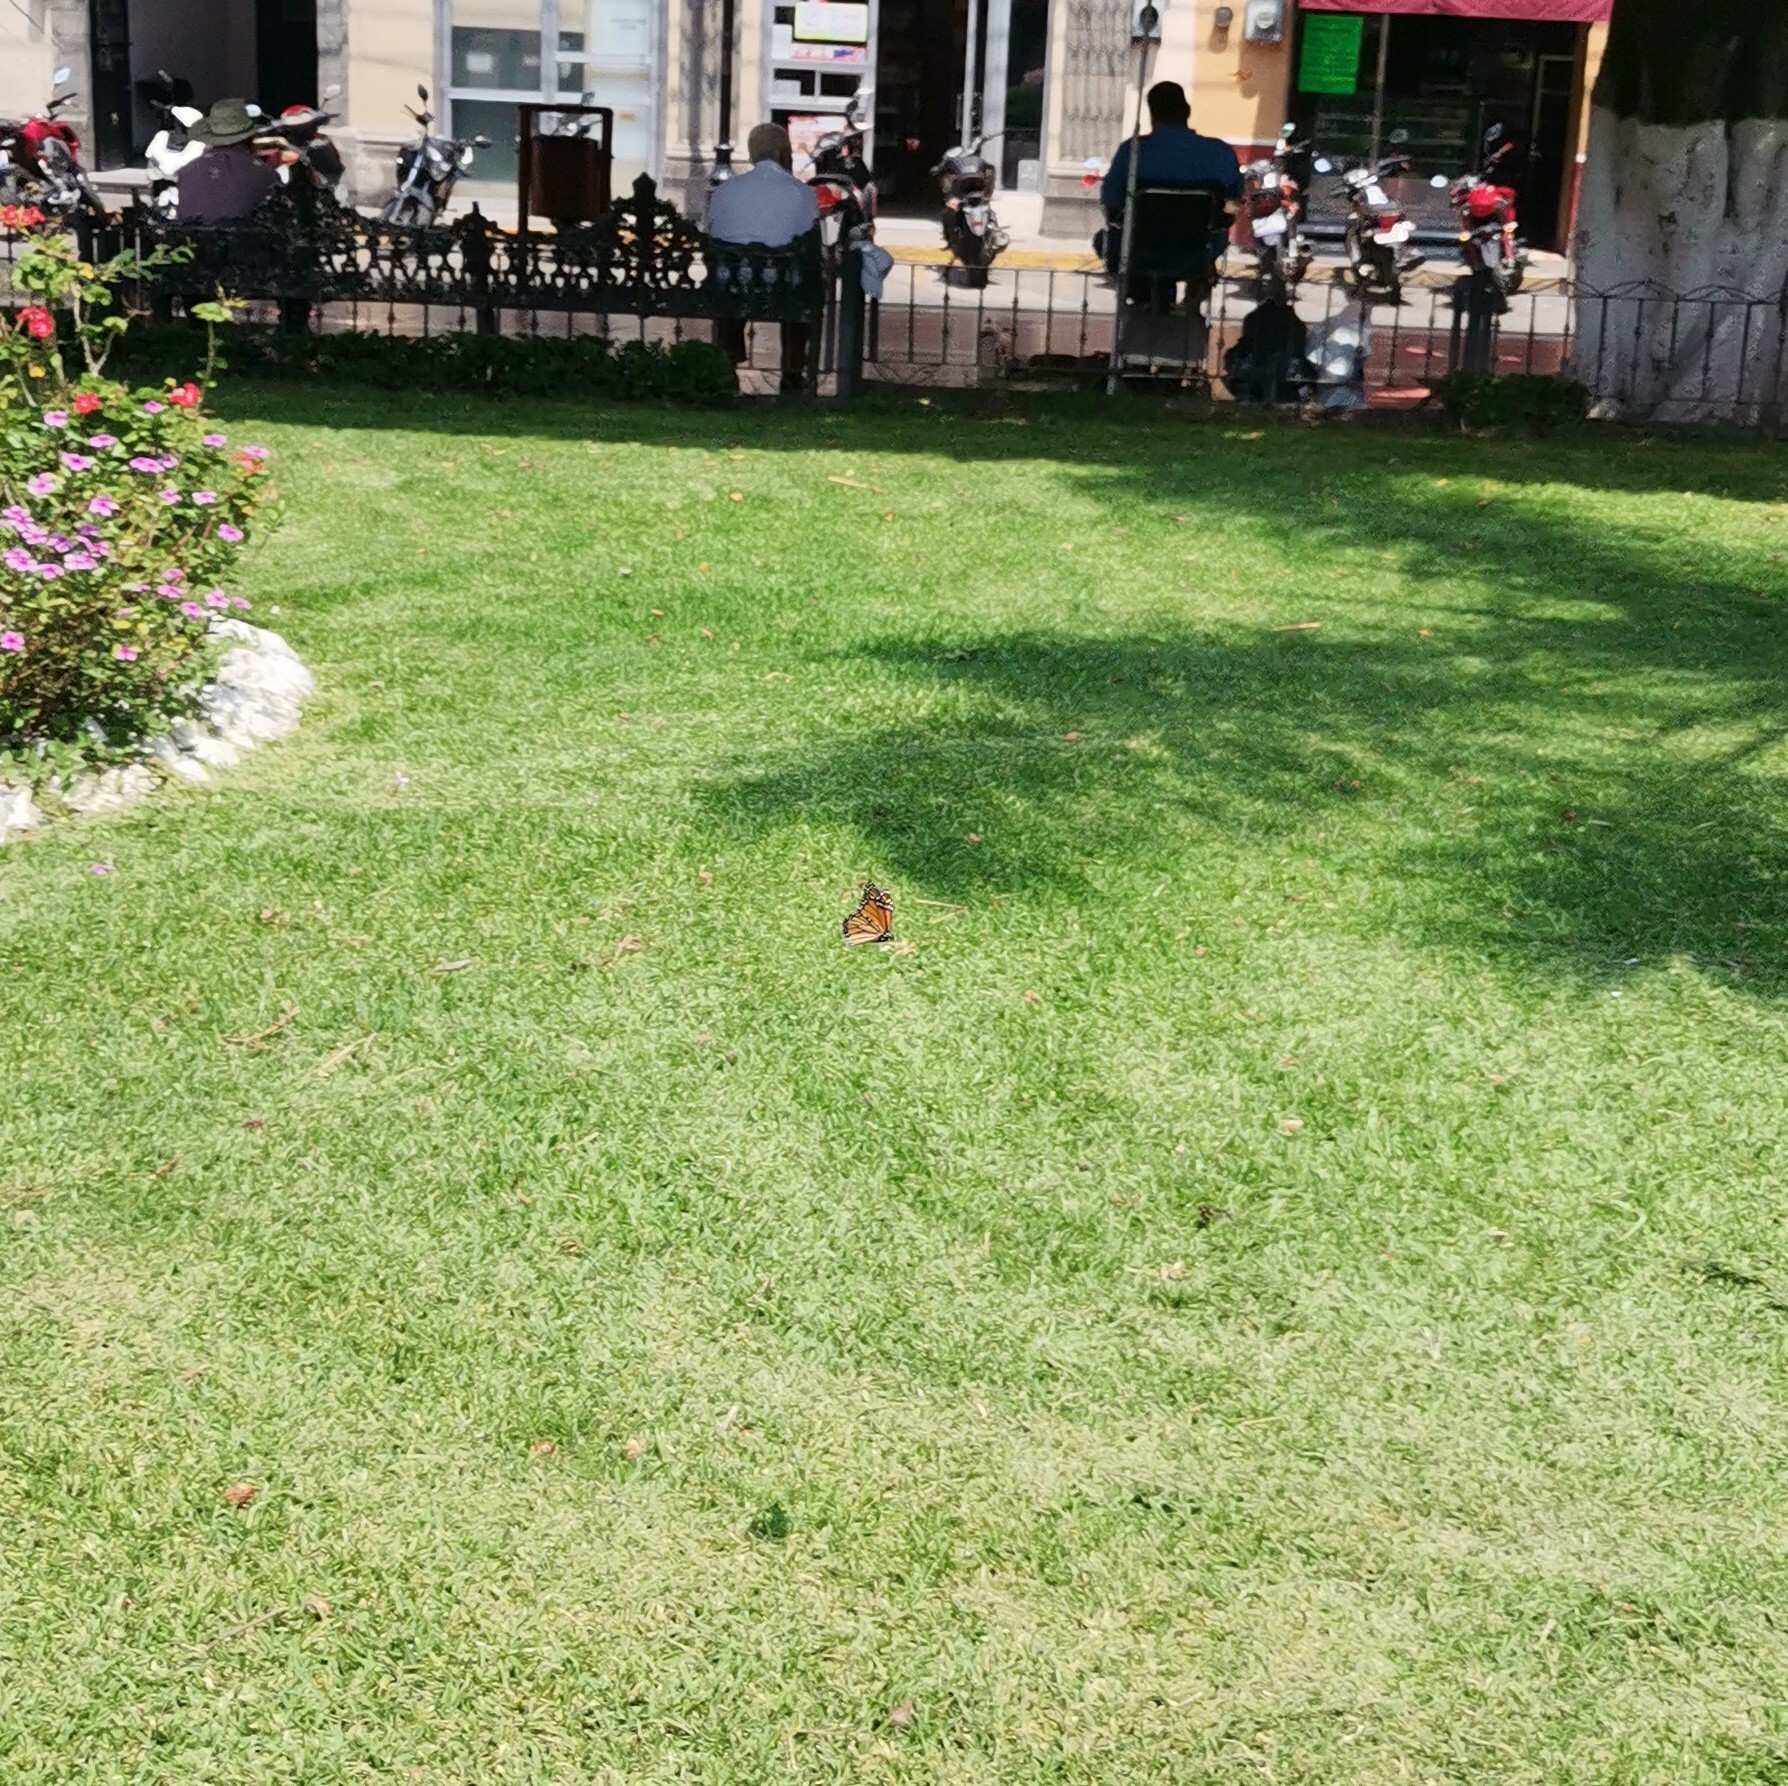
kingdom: Animalia
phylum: Arthropoda
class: Insecta
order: Lepidoptera
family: Nymphalidae
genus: Danaus
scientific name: Danaus plexippus
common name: Monarch
